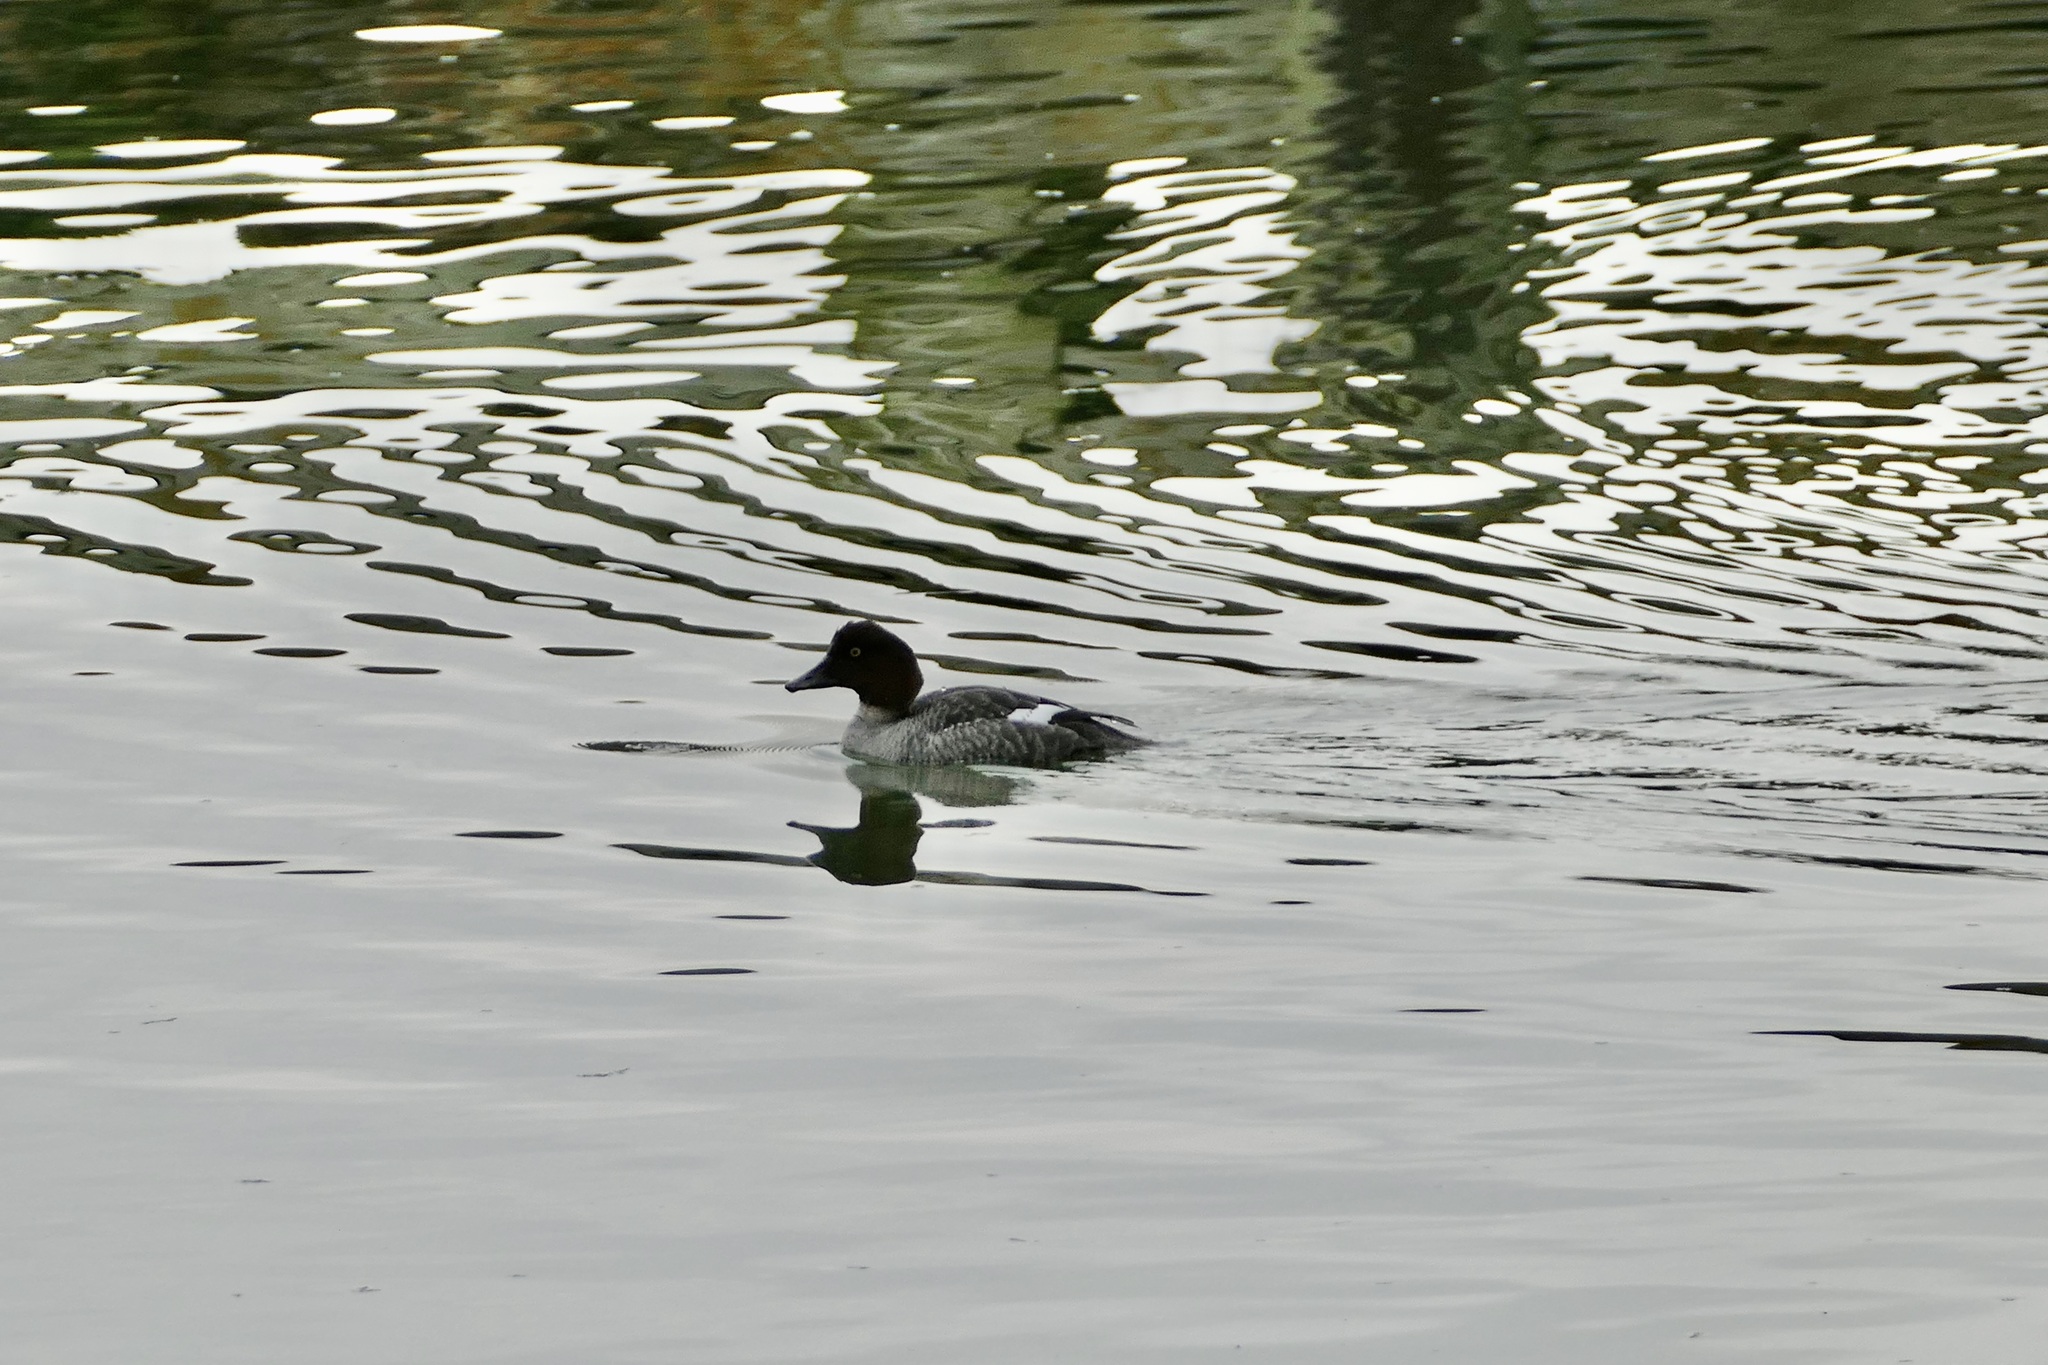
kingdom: Animalia
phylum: Chordata
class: Aves
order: Anseriformes
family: Anatidae
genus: Bucephala
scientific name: Bucephala clangula
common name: Common goldeneye
